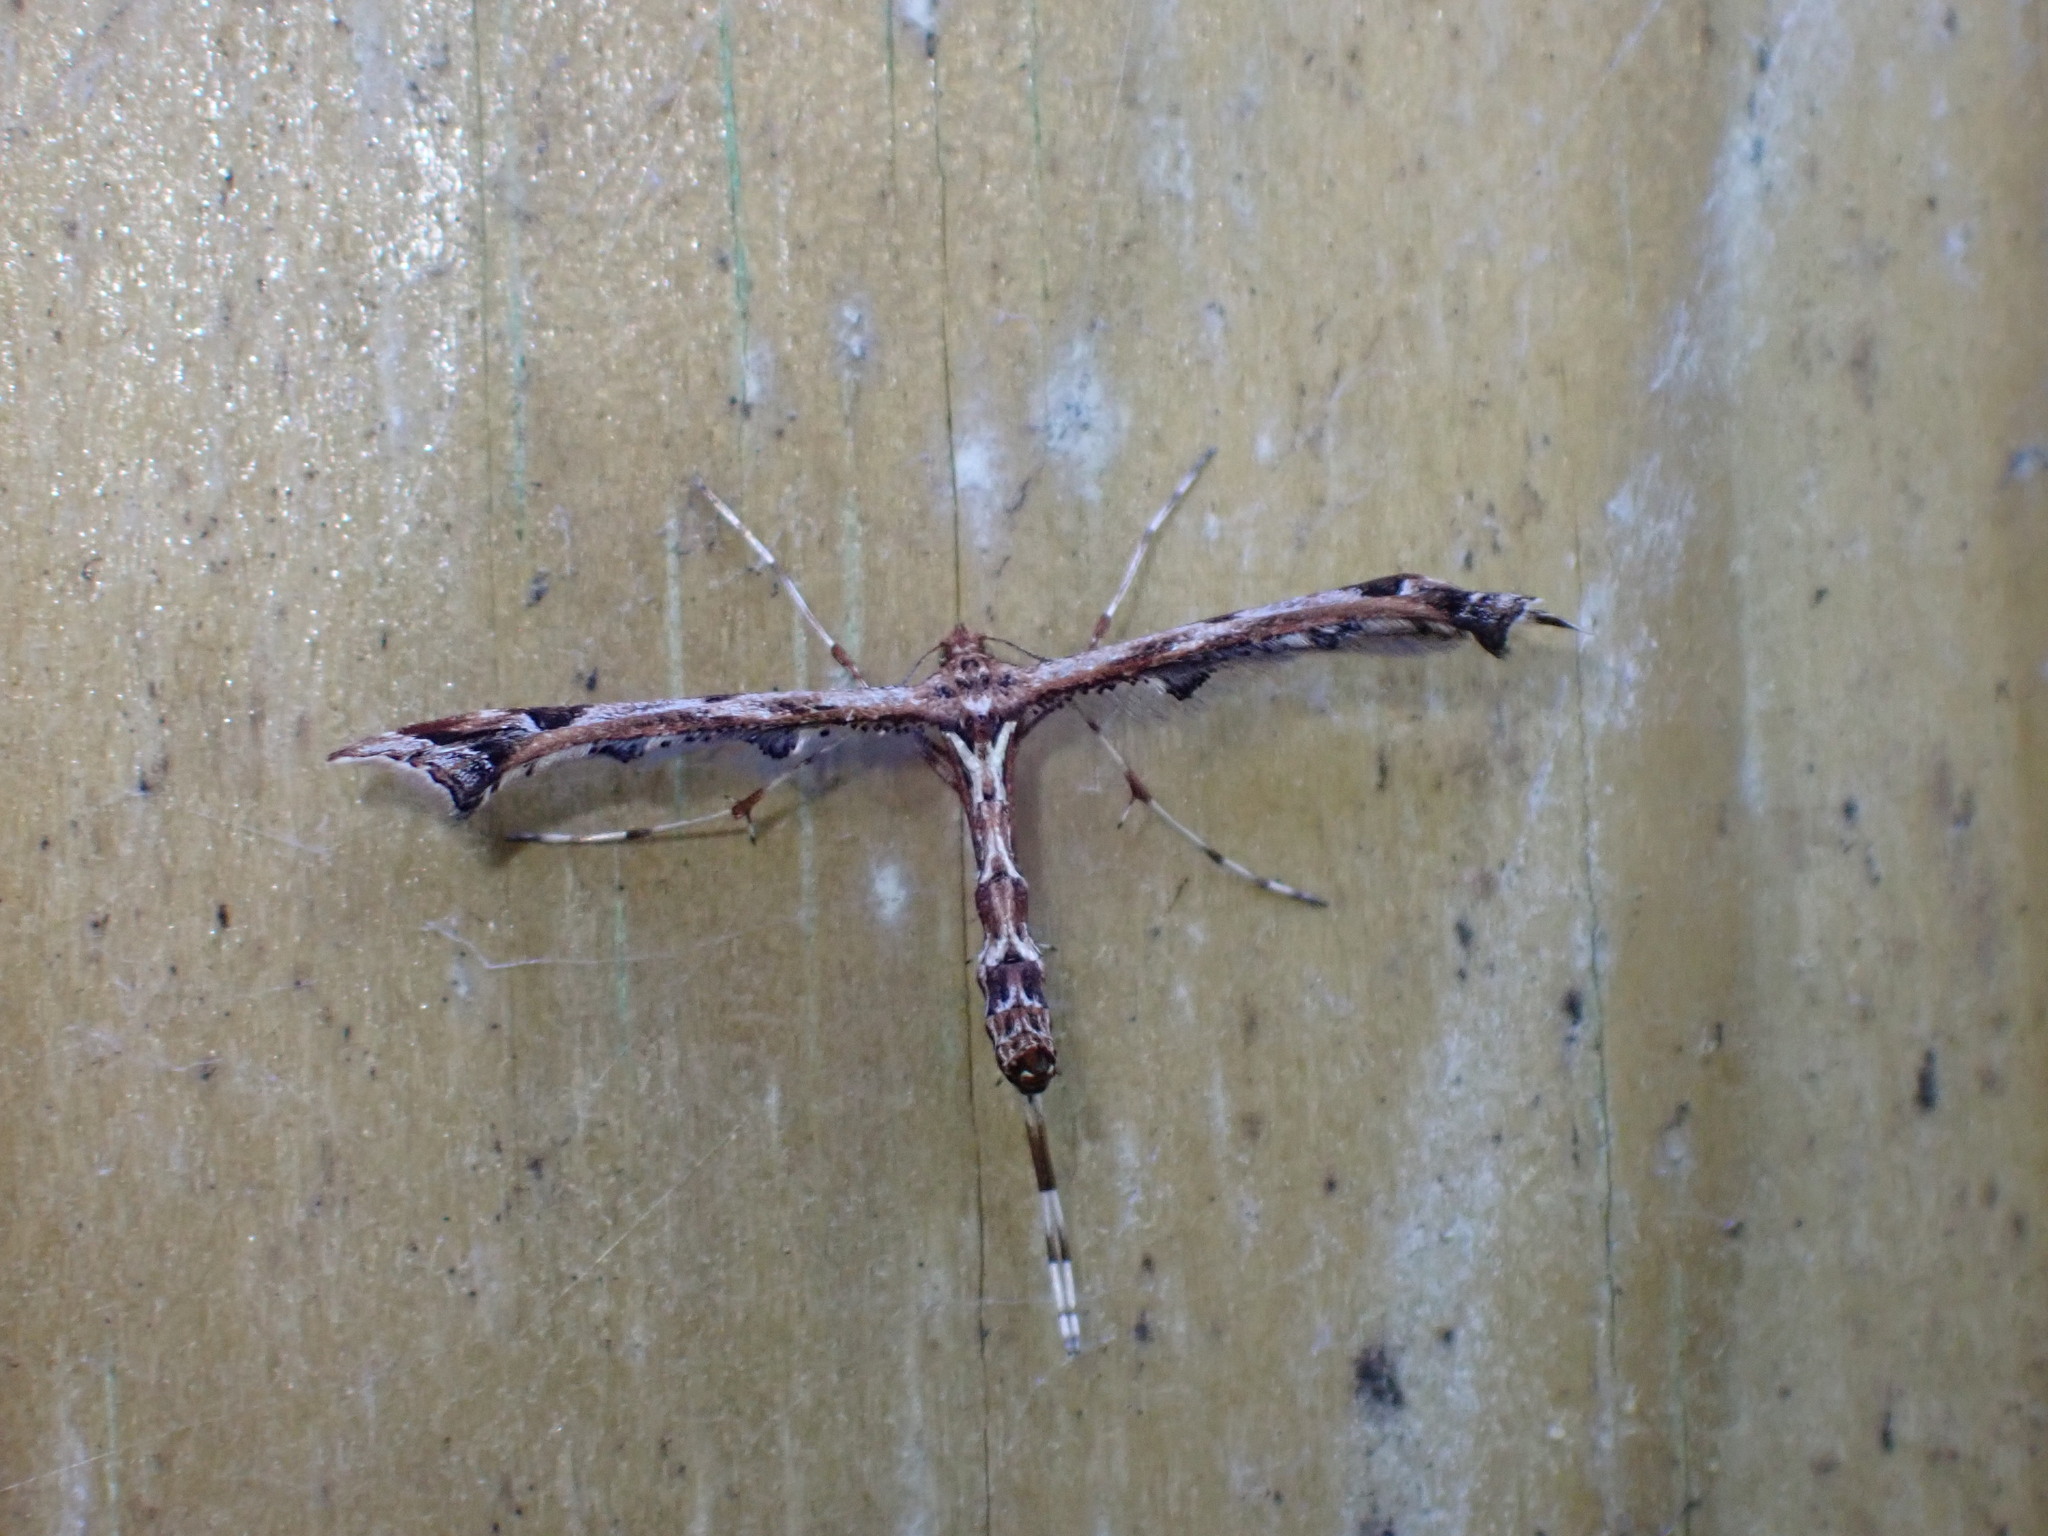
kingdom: Animalia
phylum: Arthropoda
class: Insecta
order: Lepidoptera
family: Pterophoridae
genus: Amblyptilia
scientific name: Amblyptilia acanthadactyla
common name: Beautiful plume
